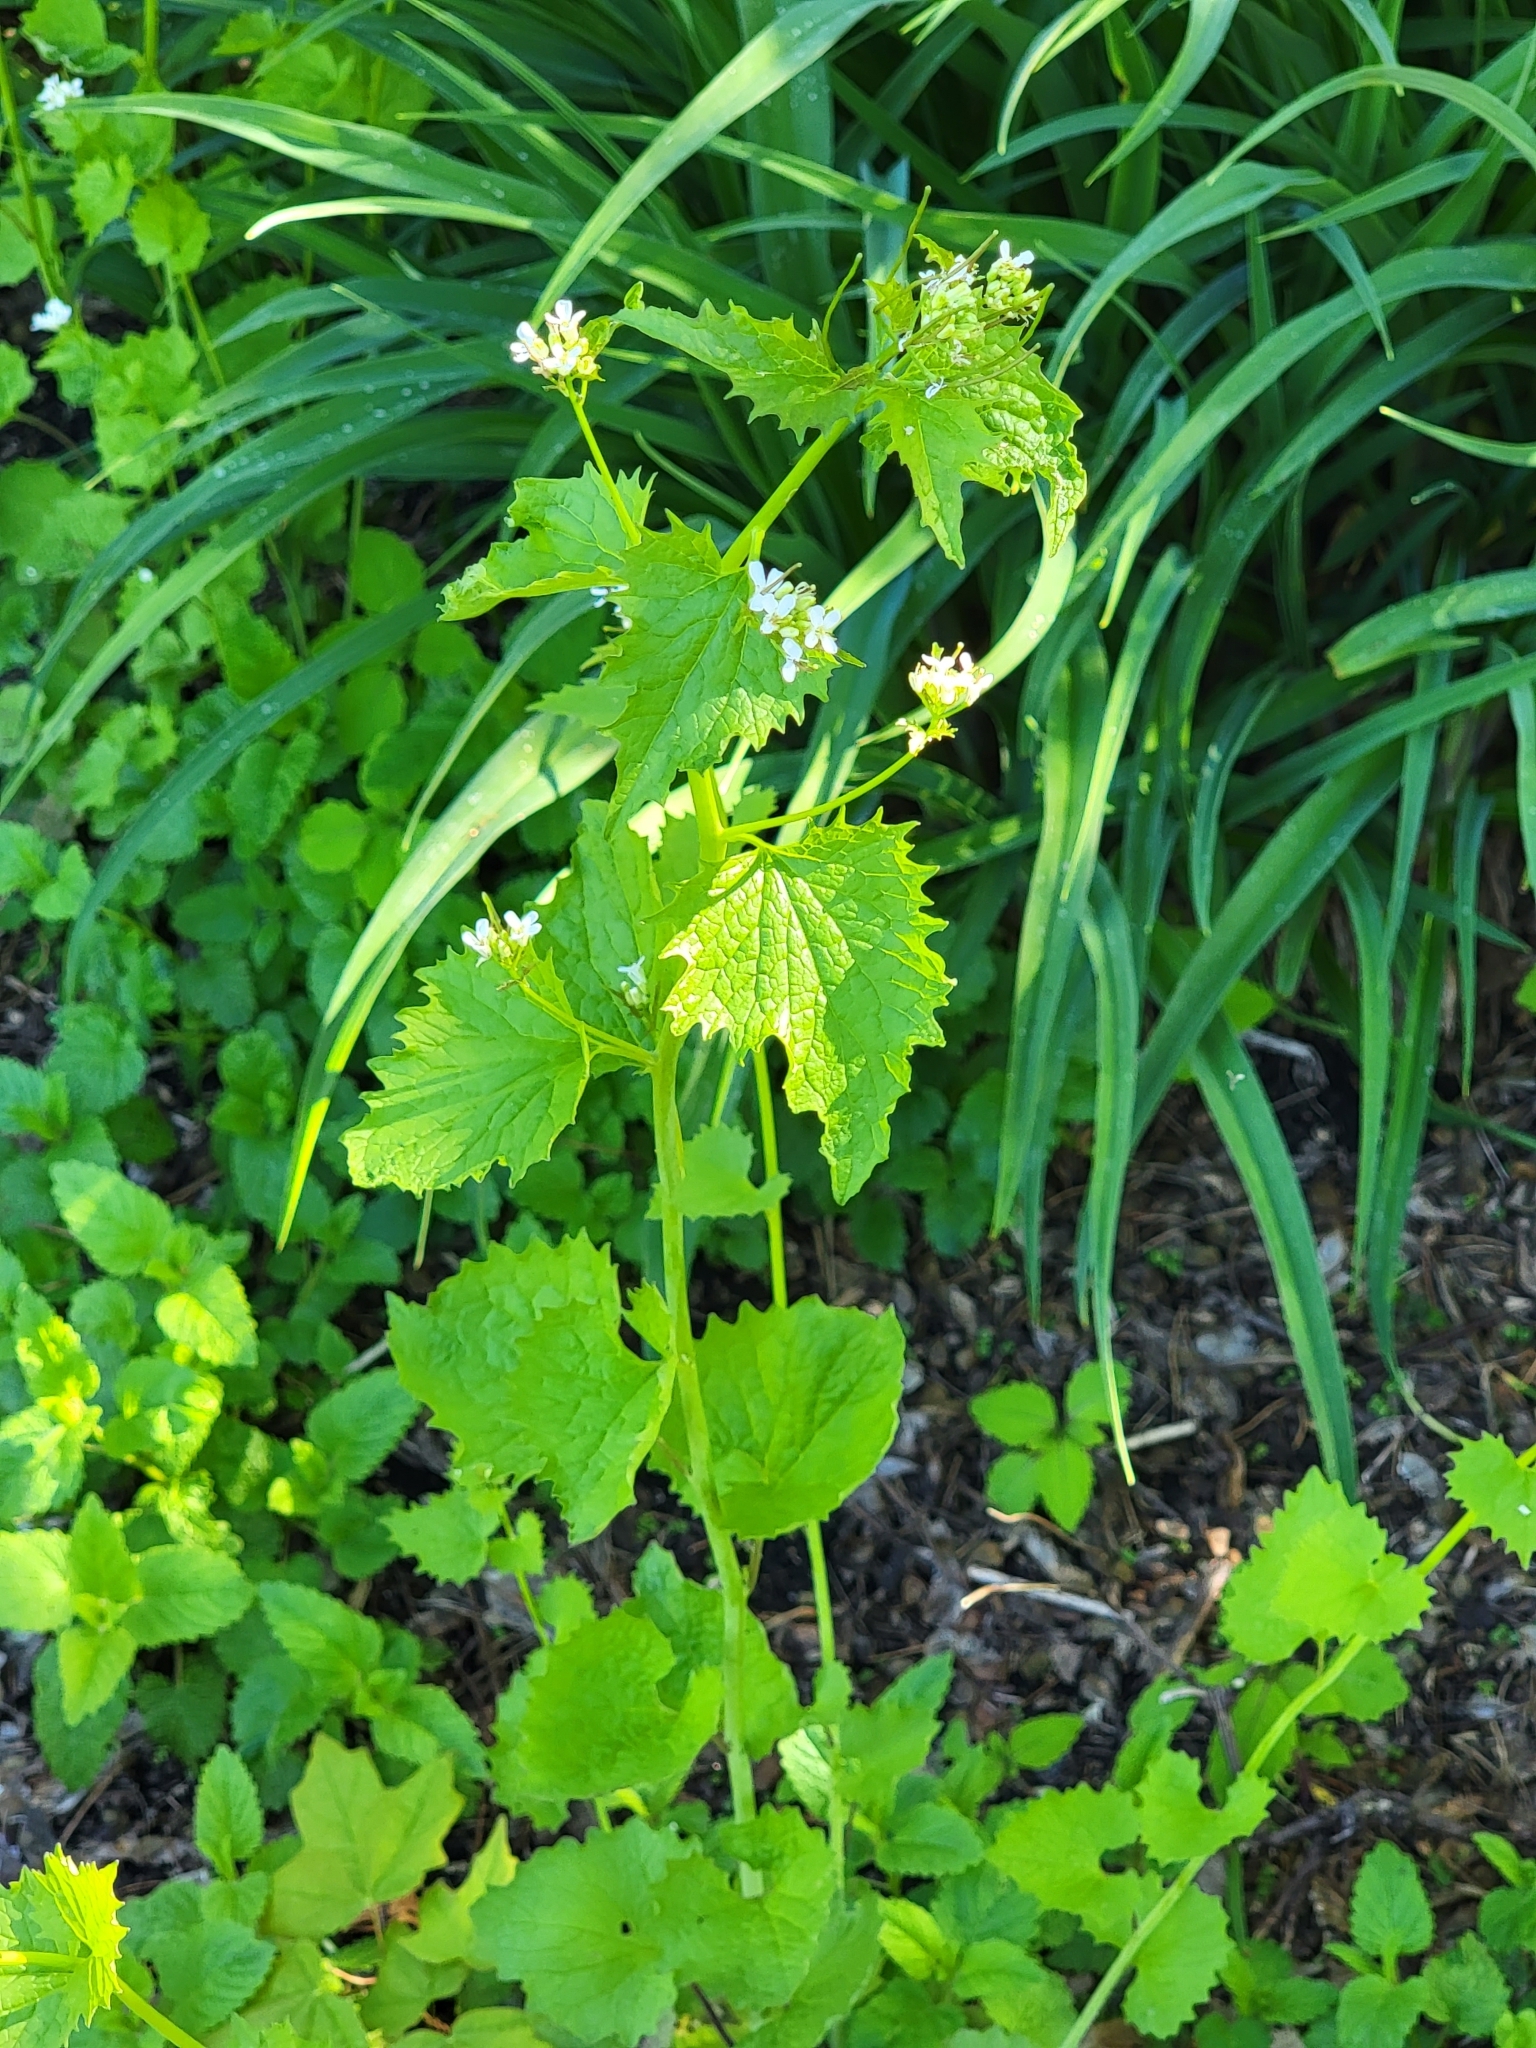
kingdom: Plantae
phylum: Tracheophyta
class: Magnoliopsida
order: Brassicales
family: Brassicaceae
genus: Alliaria
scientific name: Alliaria petiolata
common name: Garlic mustard
